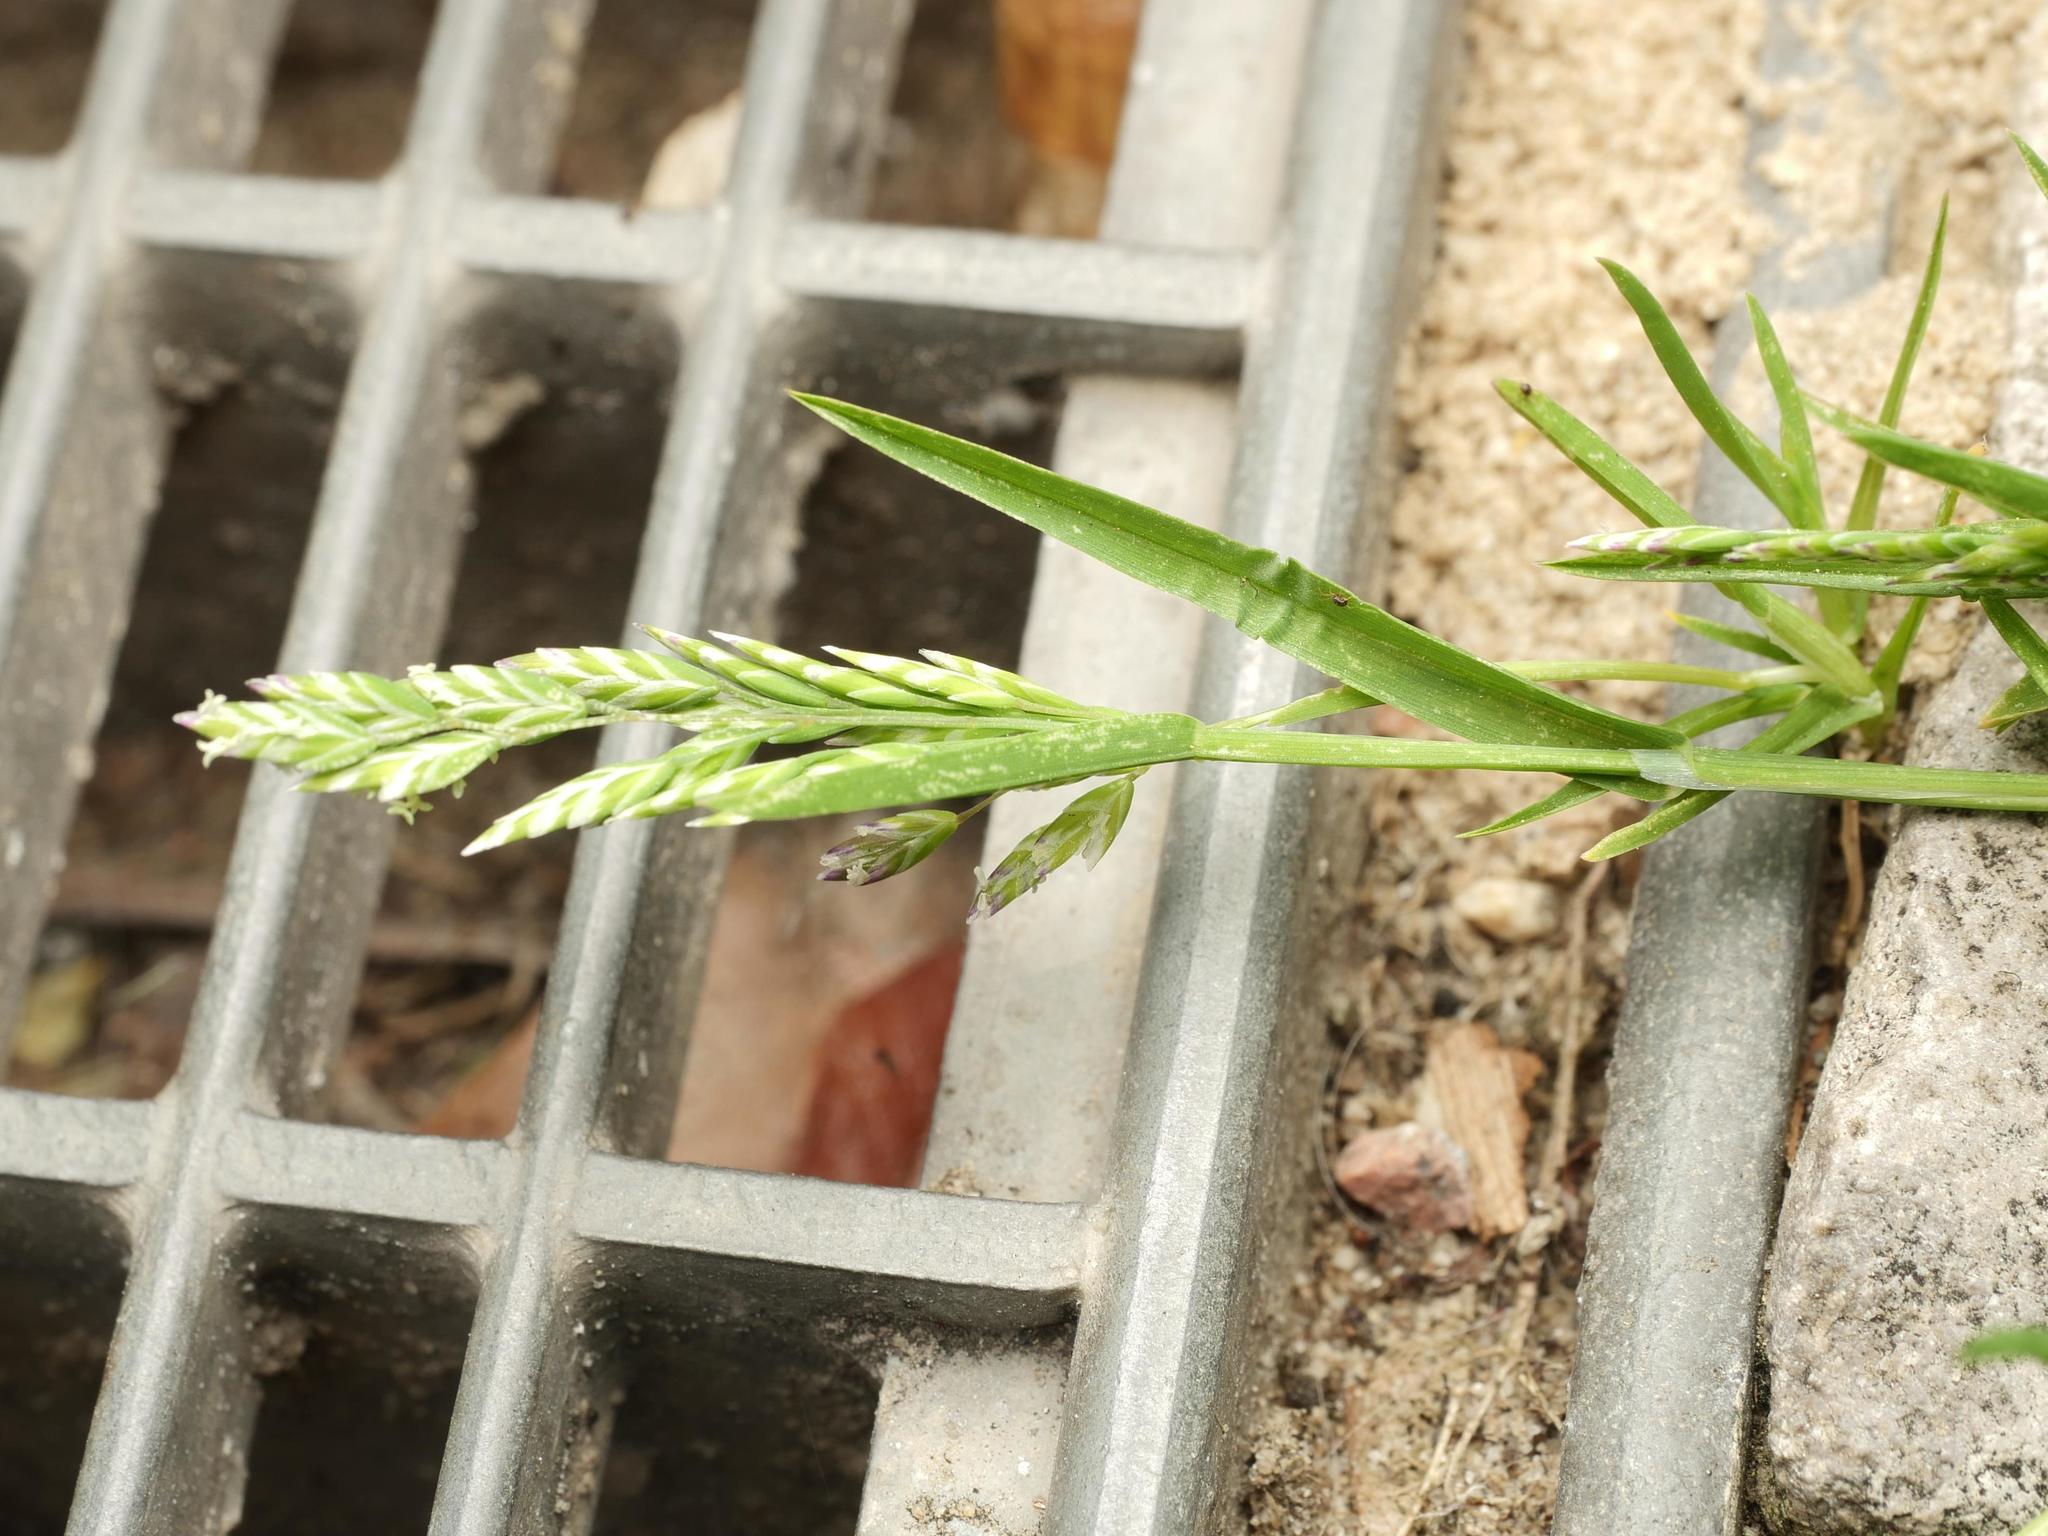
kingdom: Plantae
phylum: Tracheophyta
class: Liliopsida
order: Poales
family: Poaceae
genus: Poa
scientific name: Poa annua
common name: Annual bluegrass
